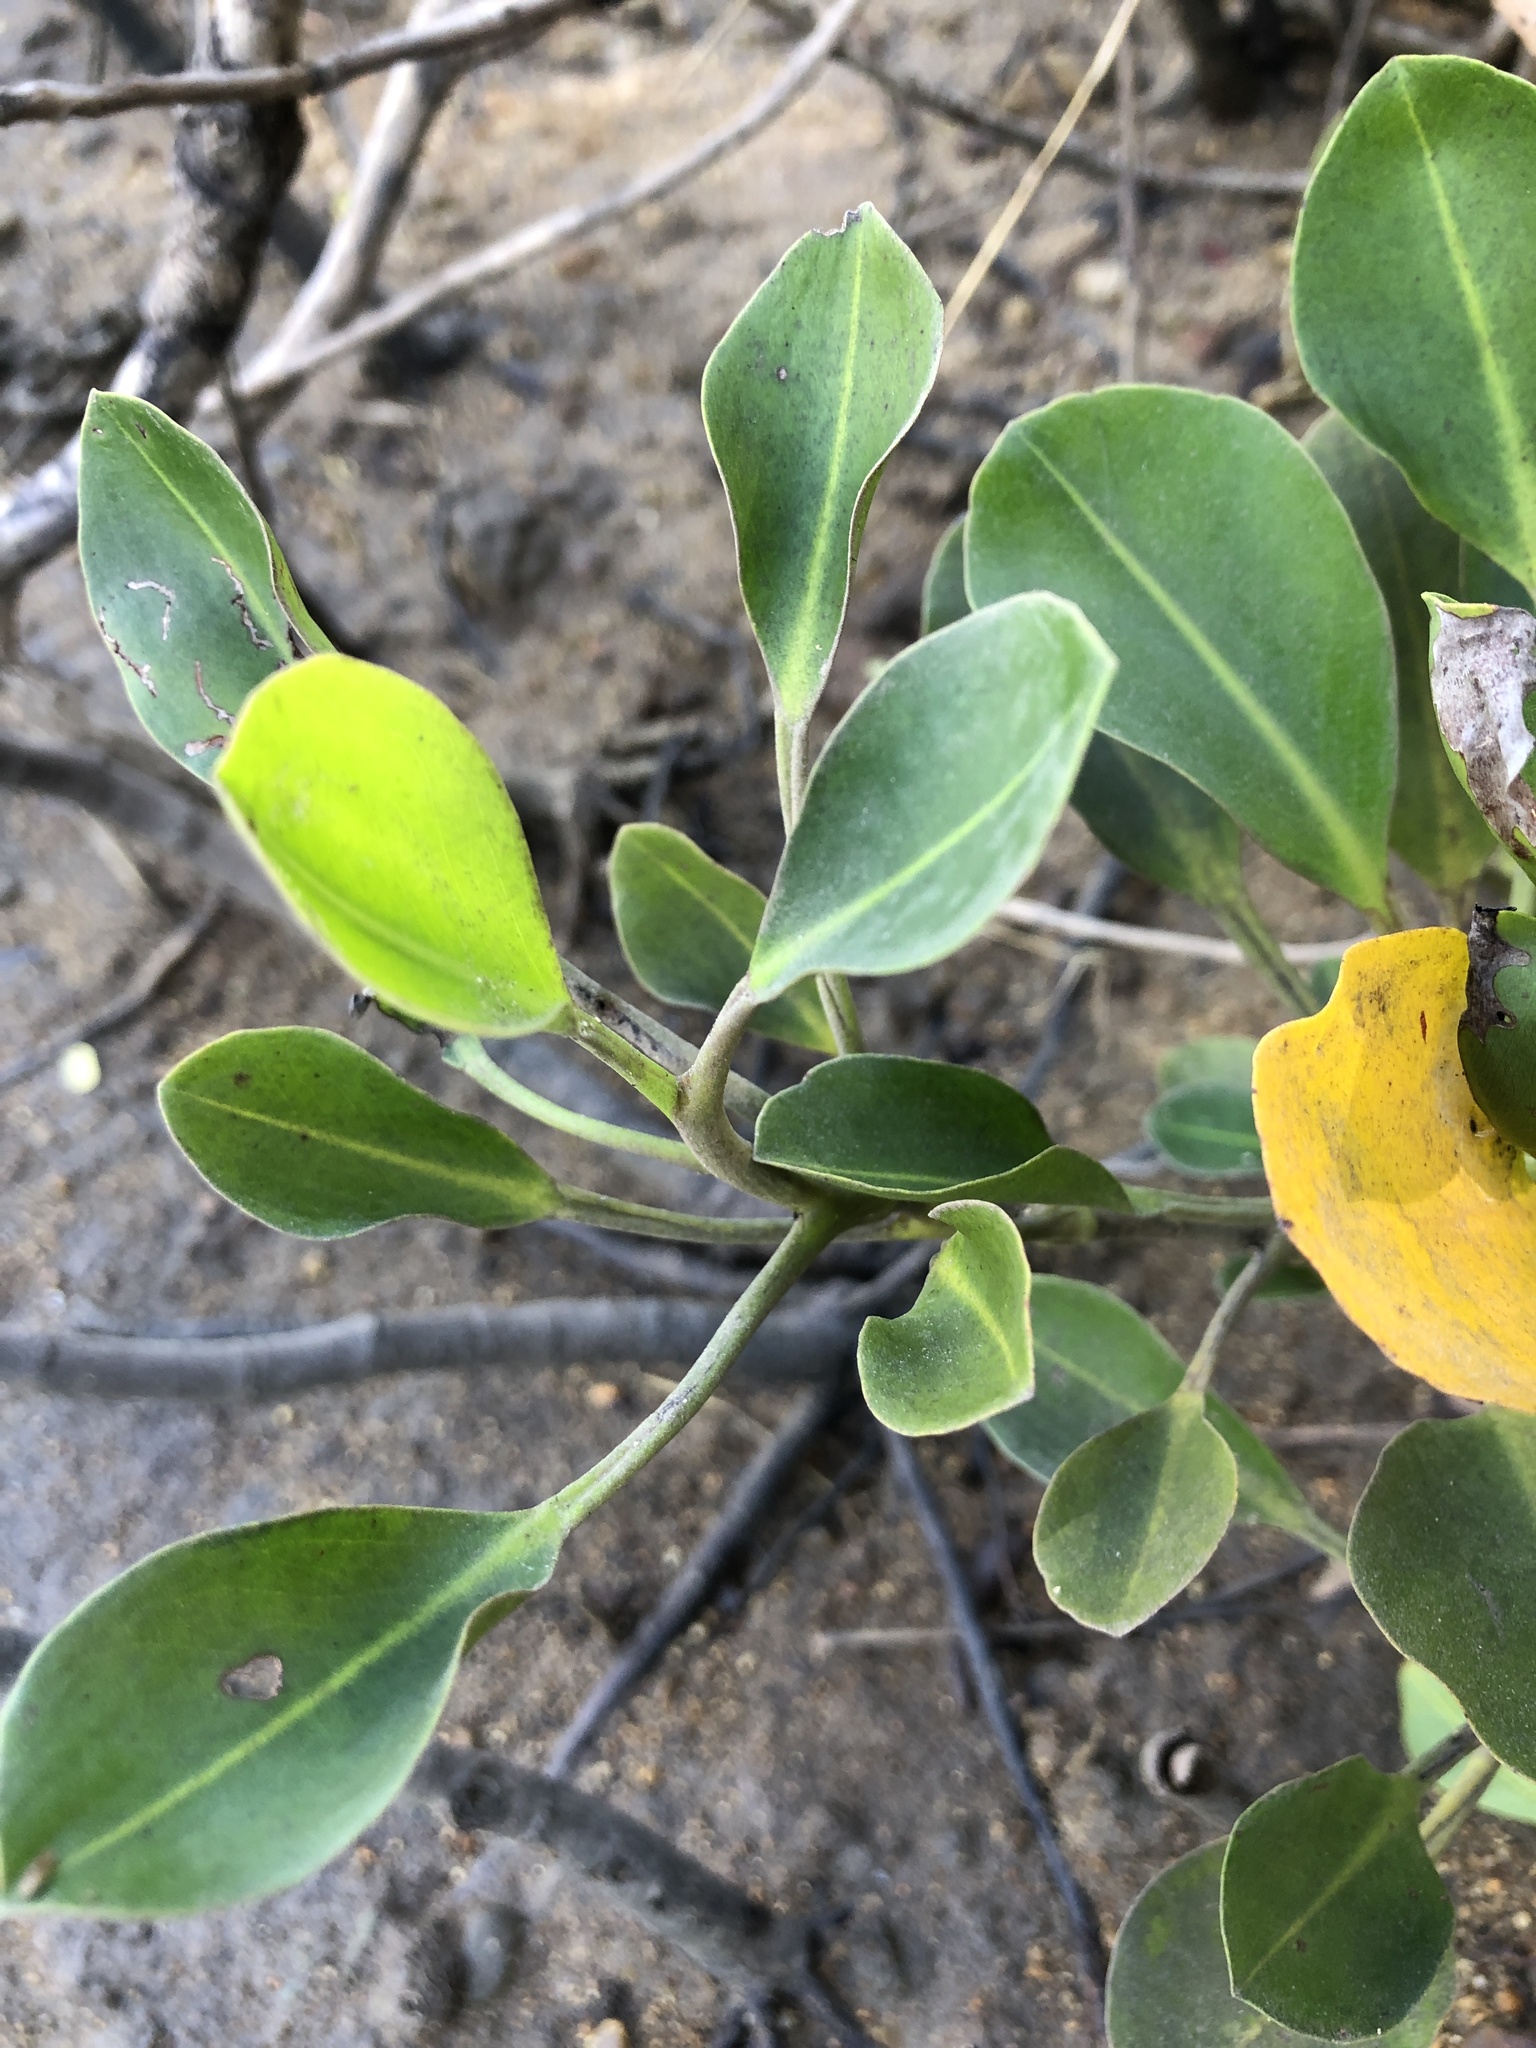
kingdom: Plantae
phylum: Tracheophyta
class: Magnoliopsida
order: Caryophyllales
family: Plumbaginaceae
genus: Aegialitis
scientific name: Aegialitis annulata
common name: Club mangrove
